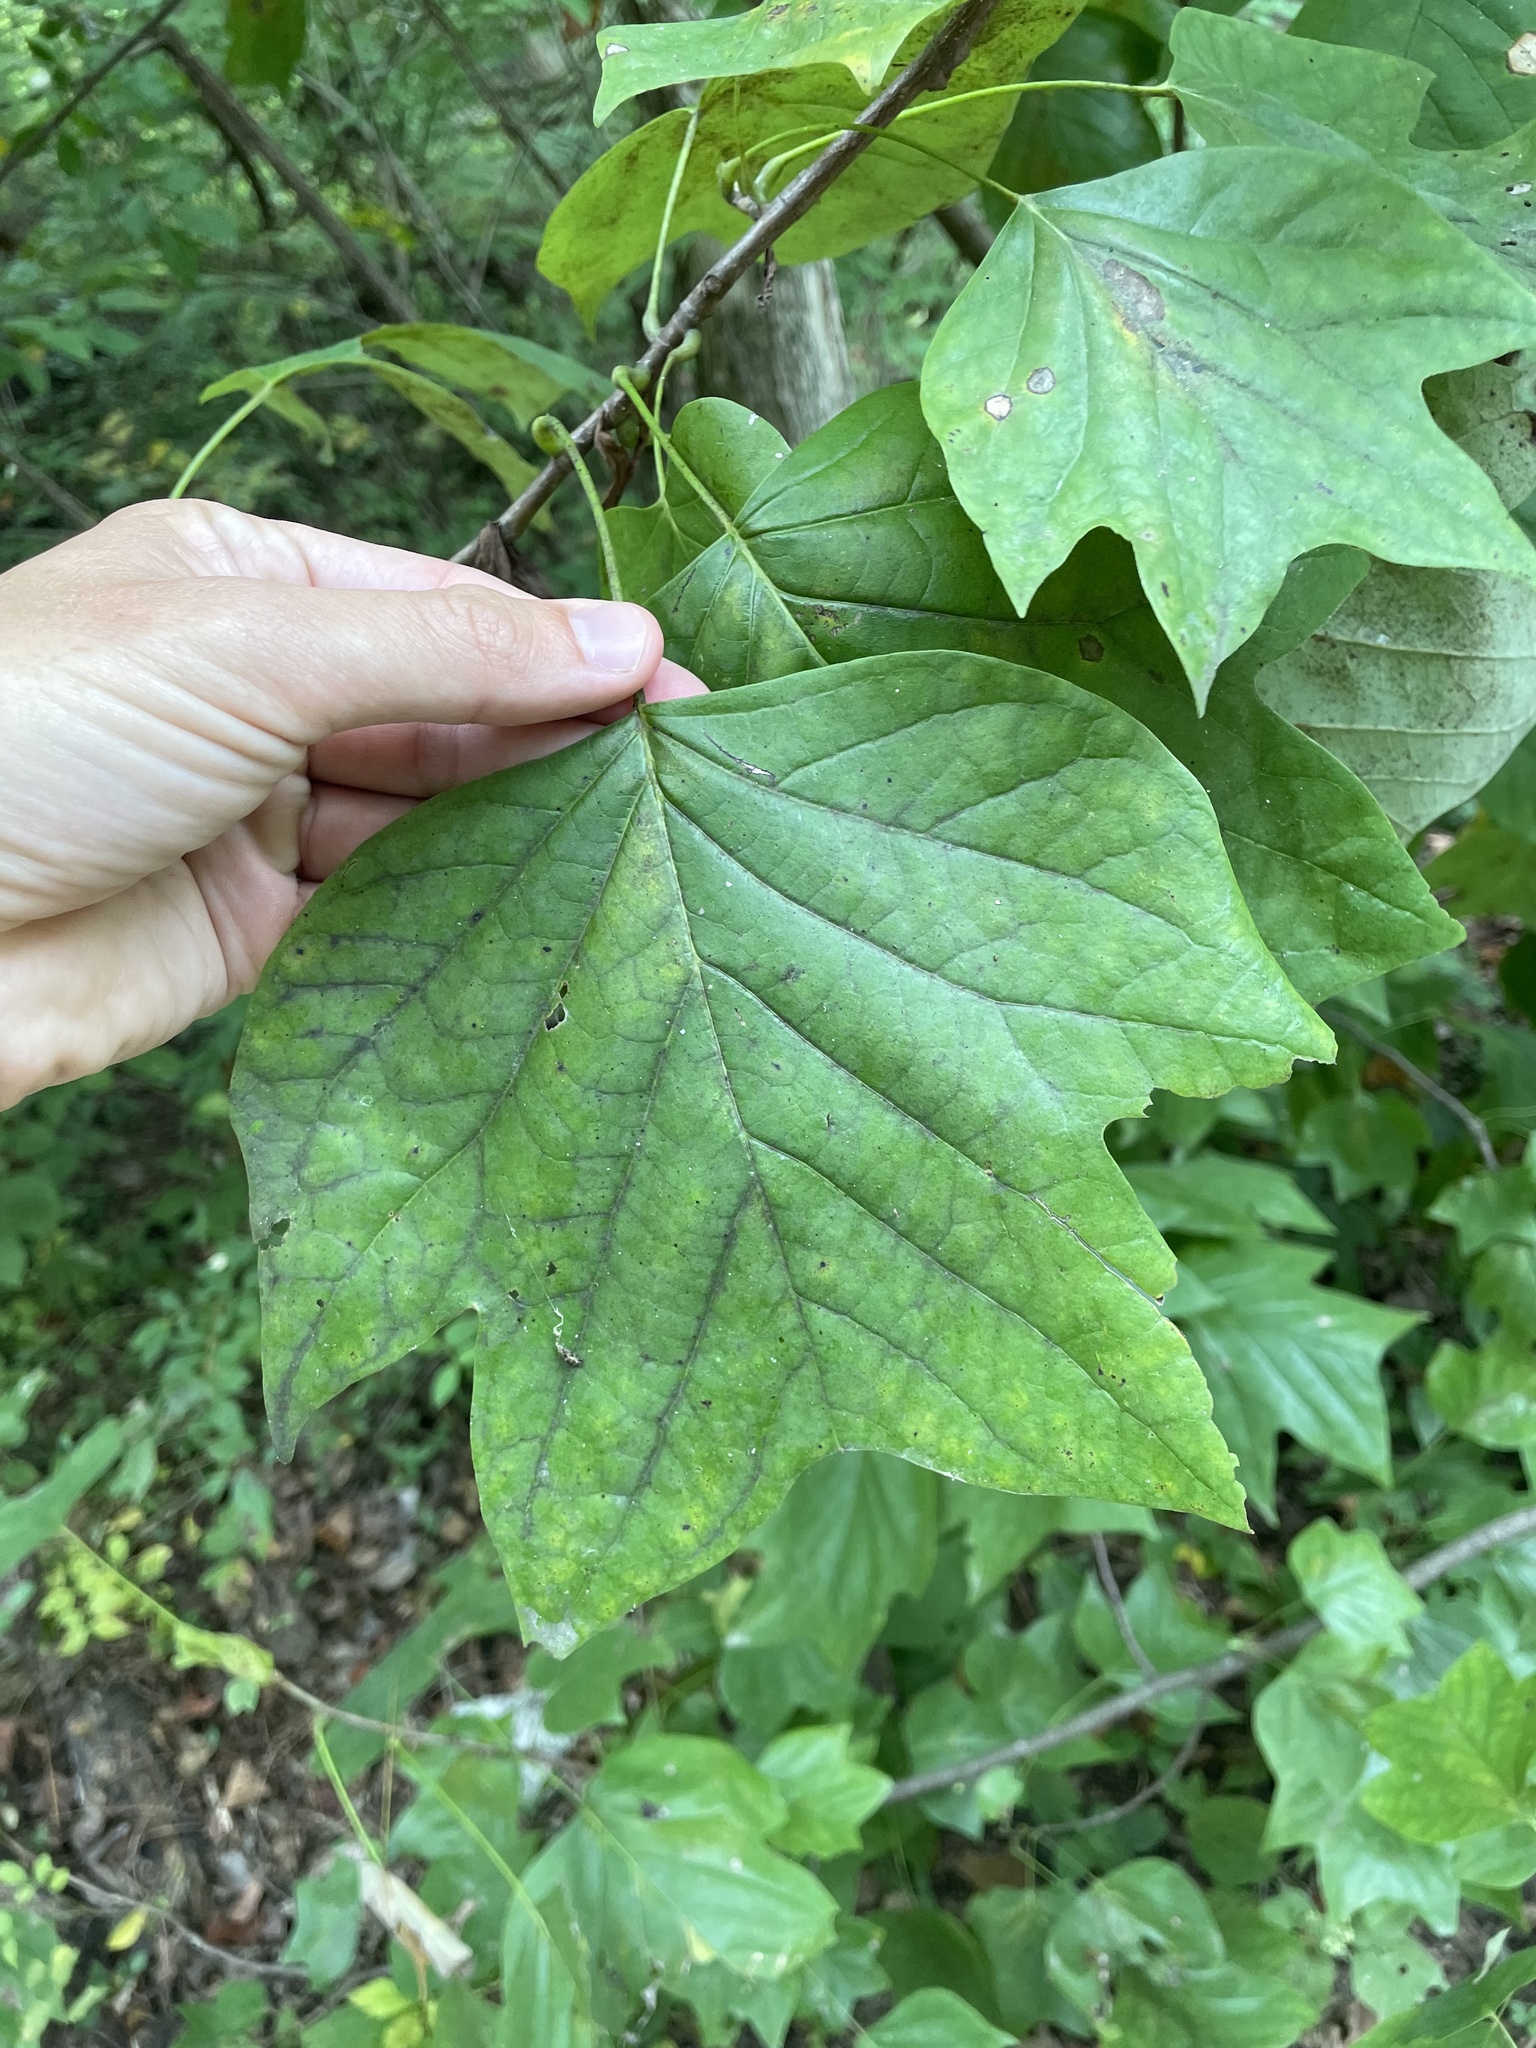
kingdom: Plantae
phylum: Tracheophyta
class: Magnoliopsida
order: Magnoliales
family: Magnoliaceae
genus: Liriodendron
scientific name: Liriodendron tulipifera
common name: Tulip tree
